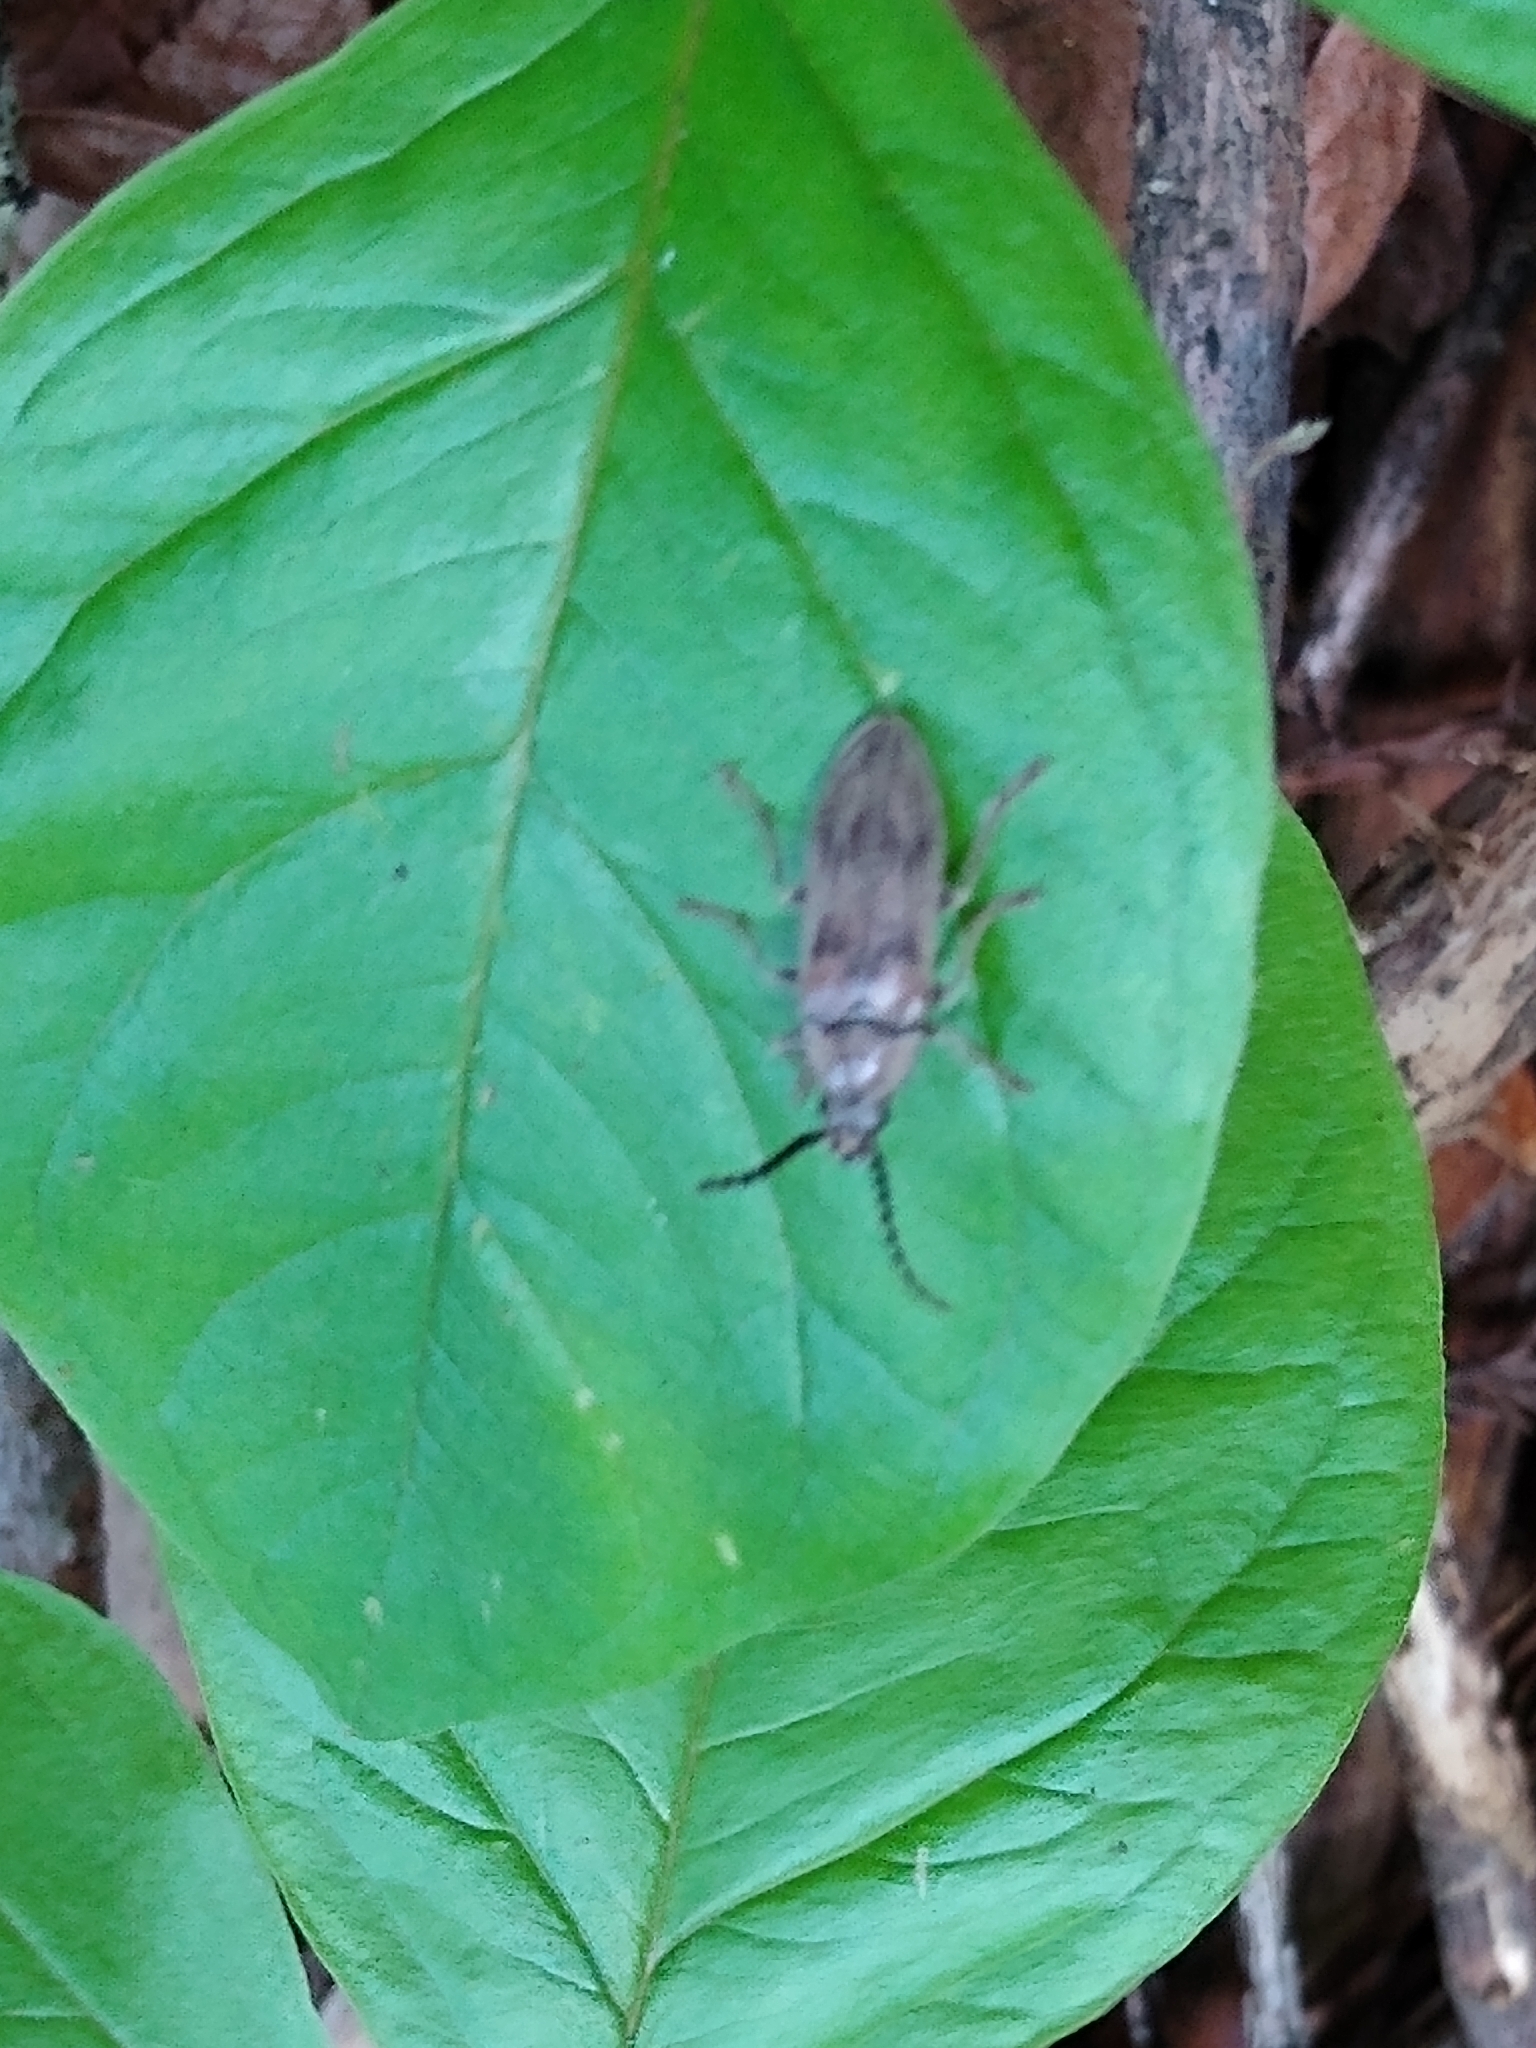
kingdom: Animalia
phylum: Arthropoda
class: Insecta
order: Coleoptera
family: Dascillidae
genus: Dascillus
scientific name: Dascillus davidsoni
